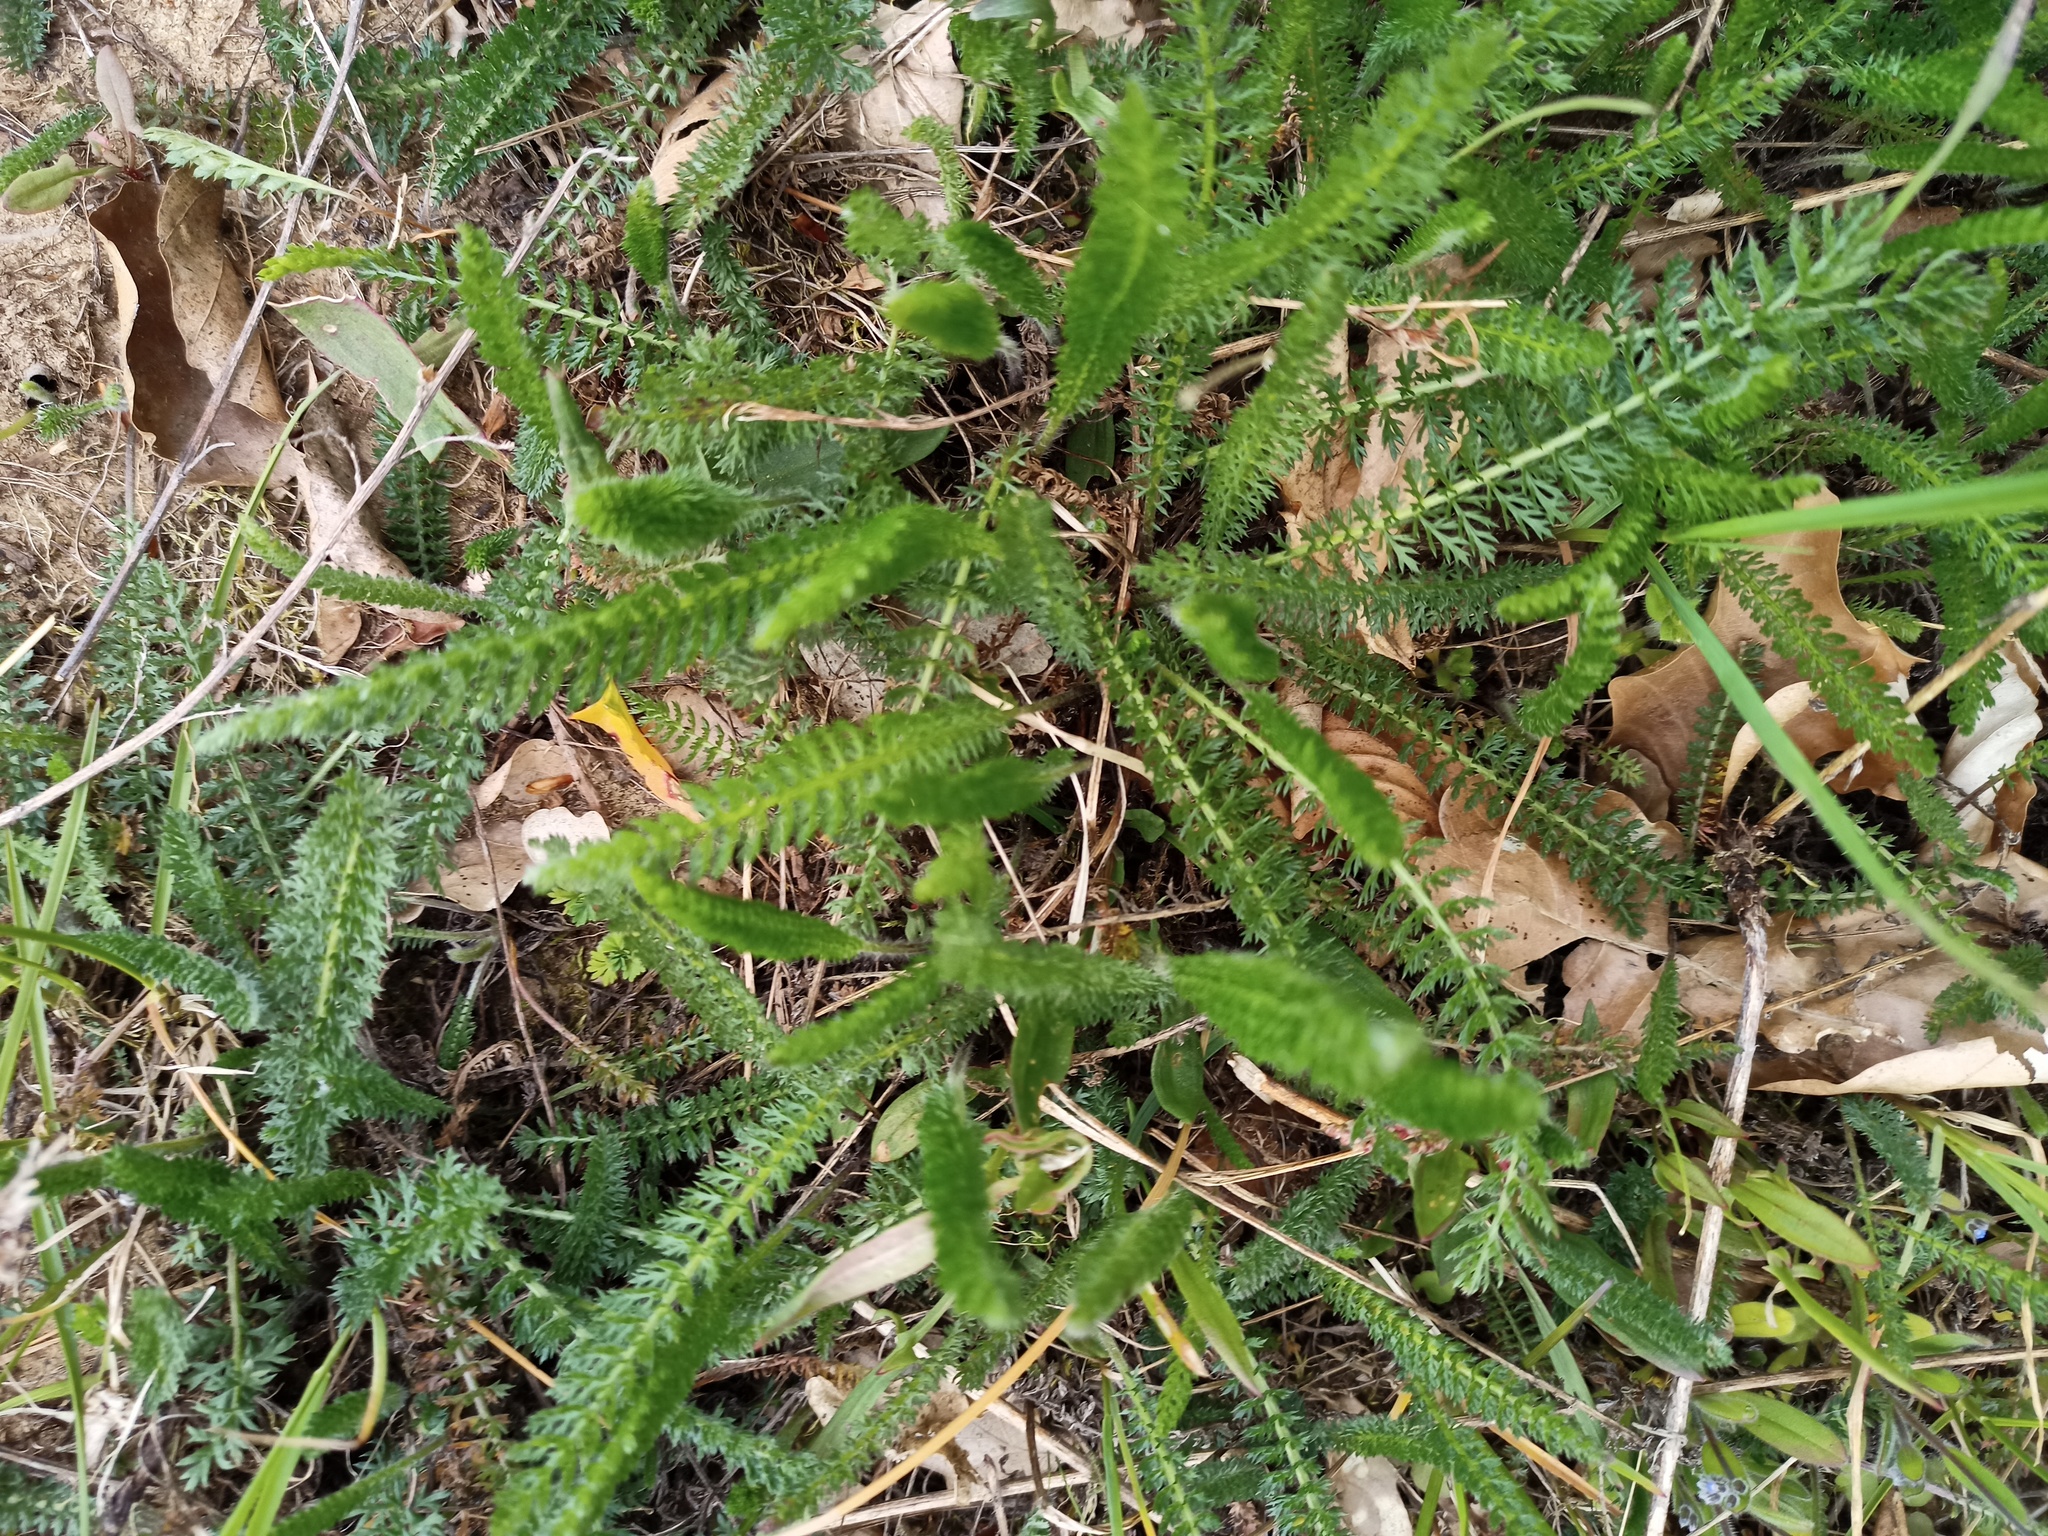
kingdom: Plantae
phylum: Tracheophyta
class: Magnoliopsida
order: Asterales
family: Asteraceae
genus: Achillea
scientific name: Achillea millefolium
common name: Yarrow
